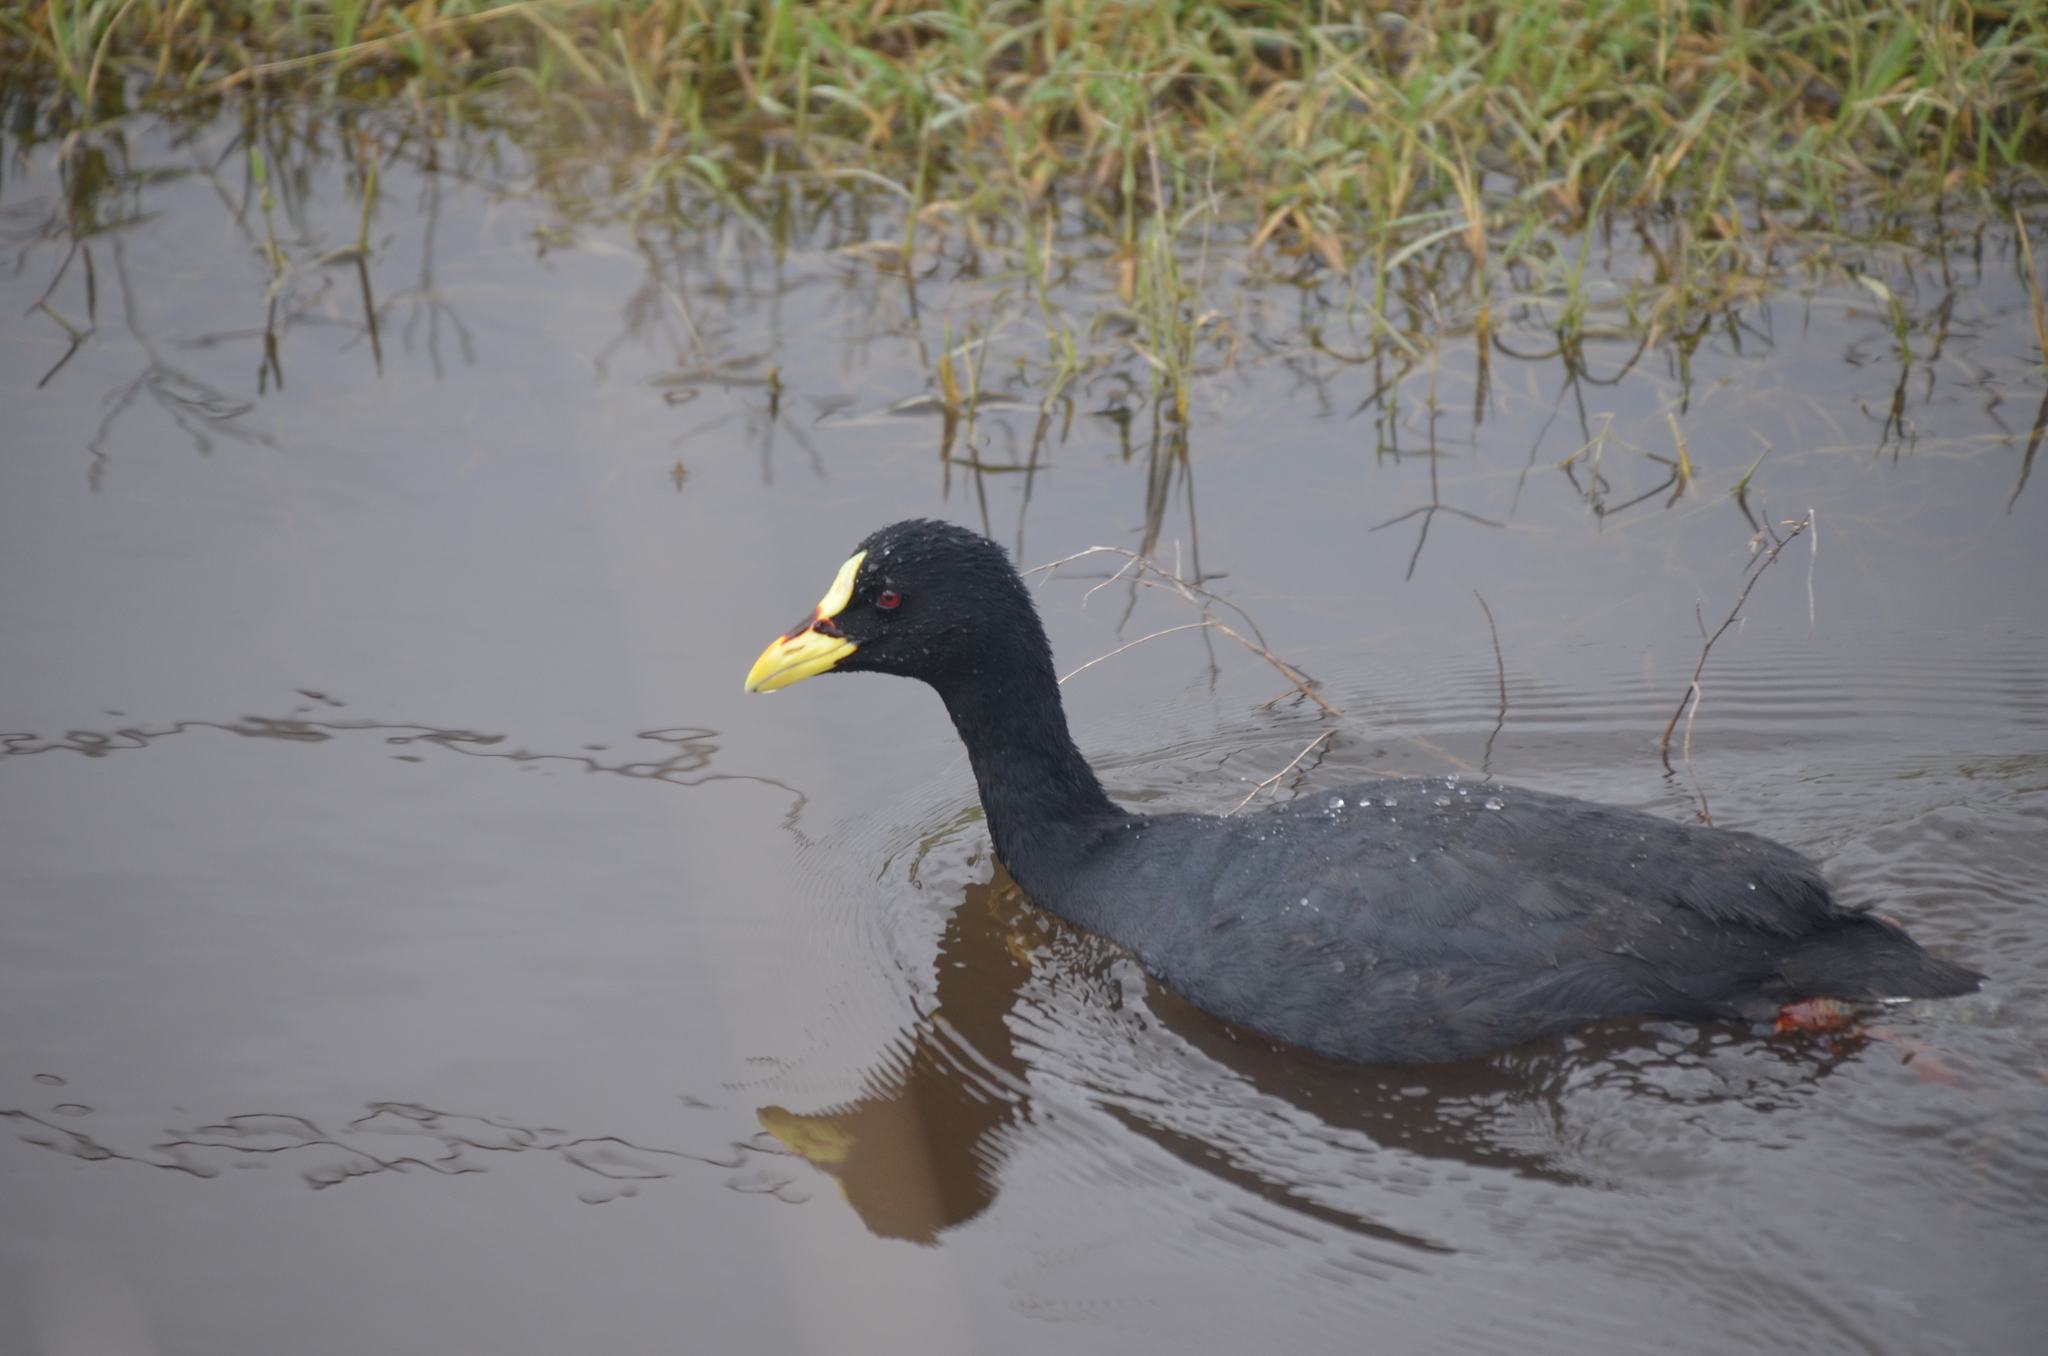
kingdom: Animalia
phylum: Chordata
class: Aves
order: Gruiformes
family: Rallidae
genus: Fulica
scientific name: Fulica armillata
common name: Red-gartered coot
